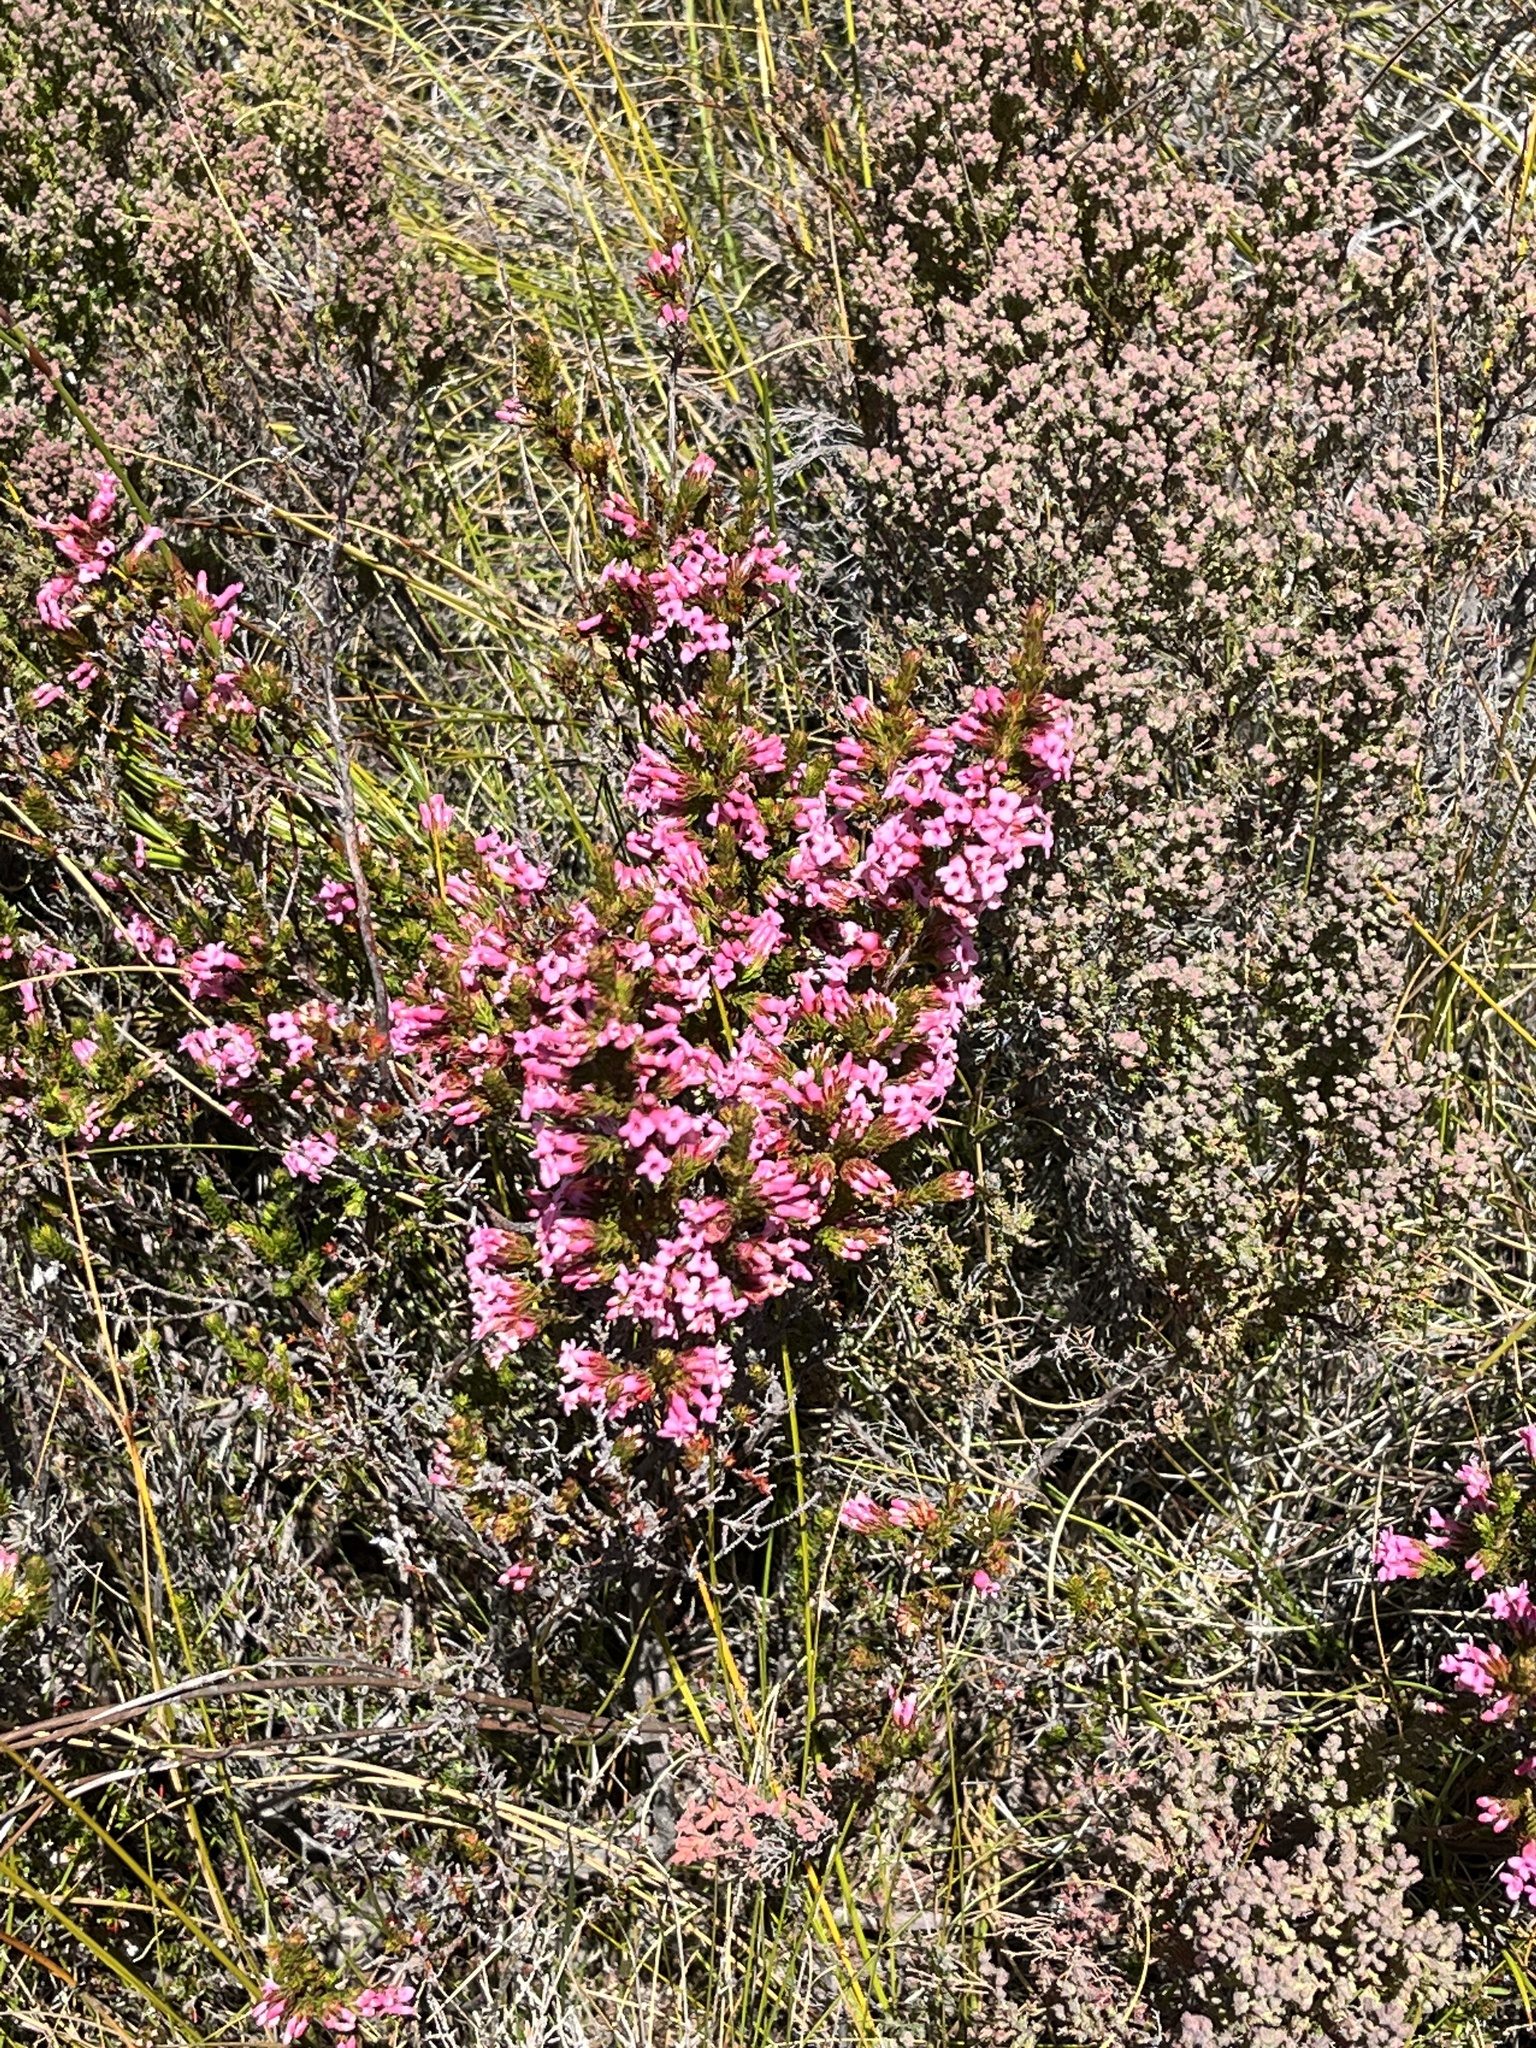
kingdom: Plantae
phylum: Tracheophyta
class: Magnoliopsida
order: Ericales
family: Ericaceae
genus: Erica
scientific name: Erica daphniflora
